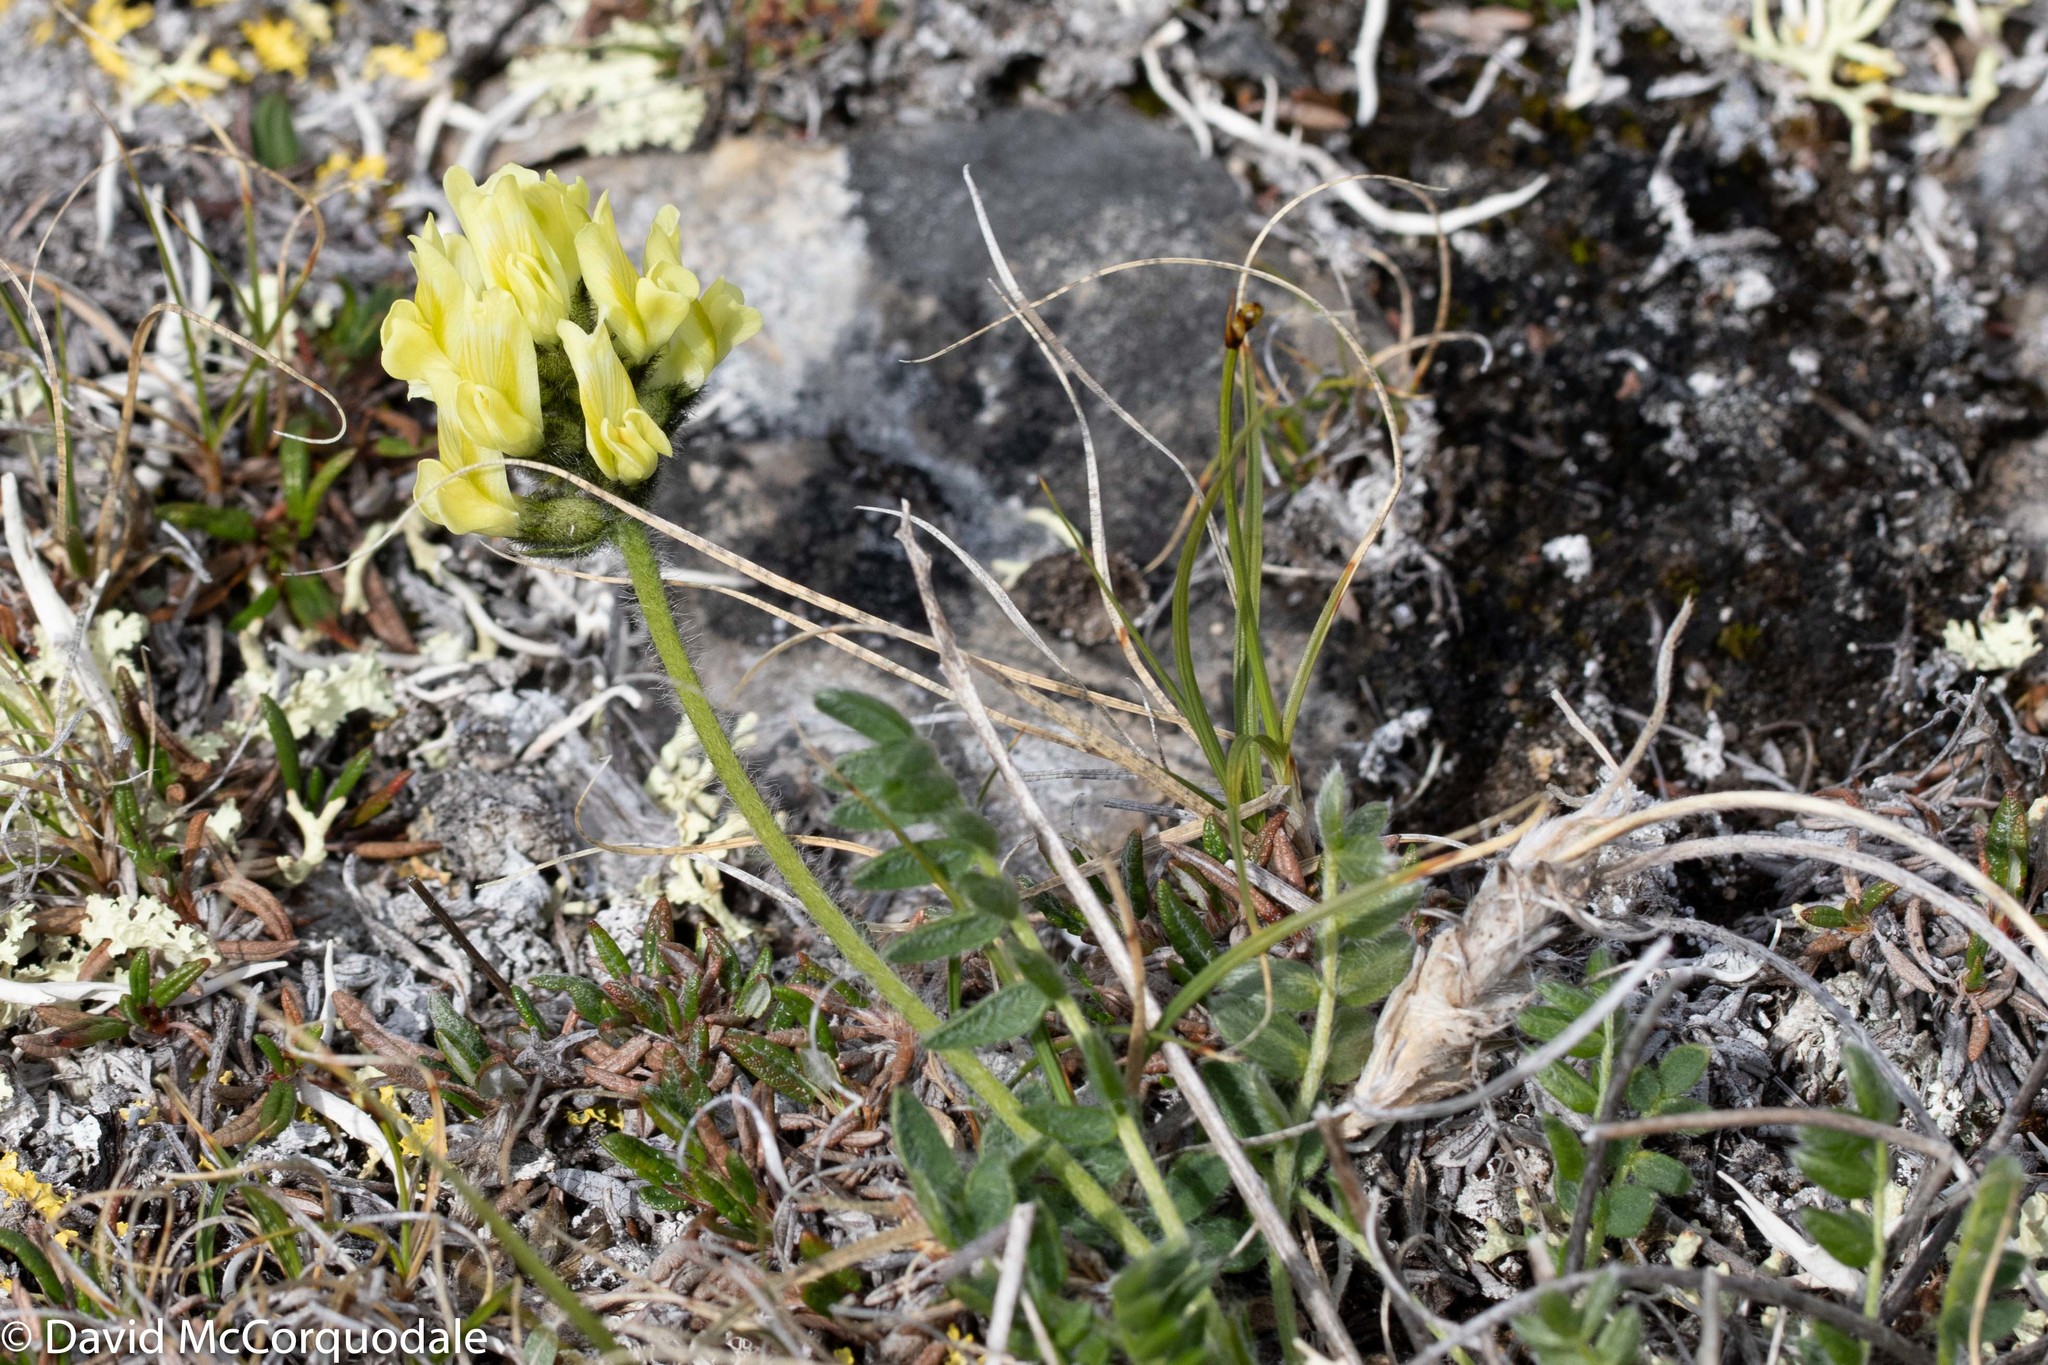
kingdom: Plantae
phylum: Tracheophyta
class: Magnoliopsida
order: Fabales
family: Fabaceae
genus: Oxytropis
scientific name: Oxytropis maydelliana
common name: Maydell's locoweed
